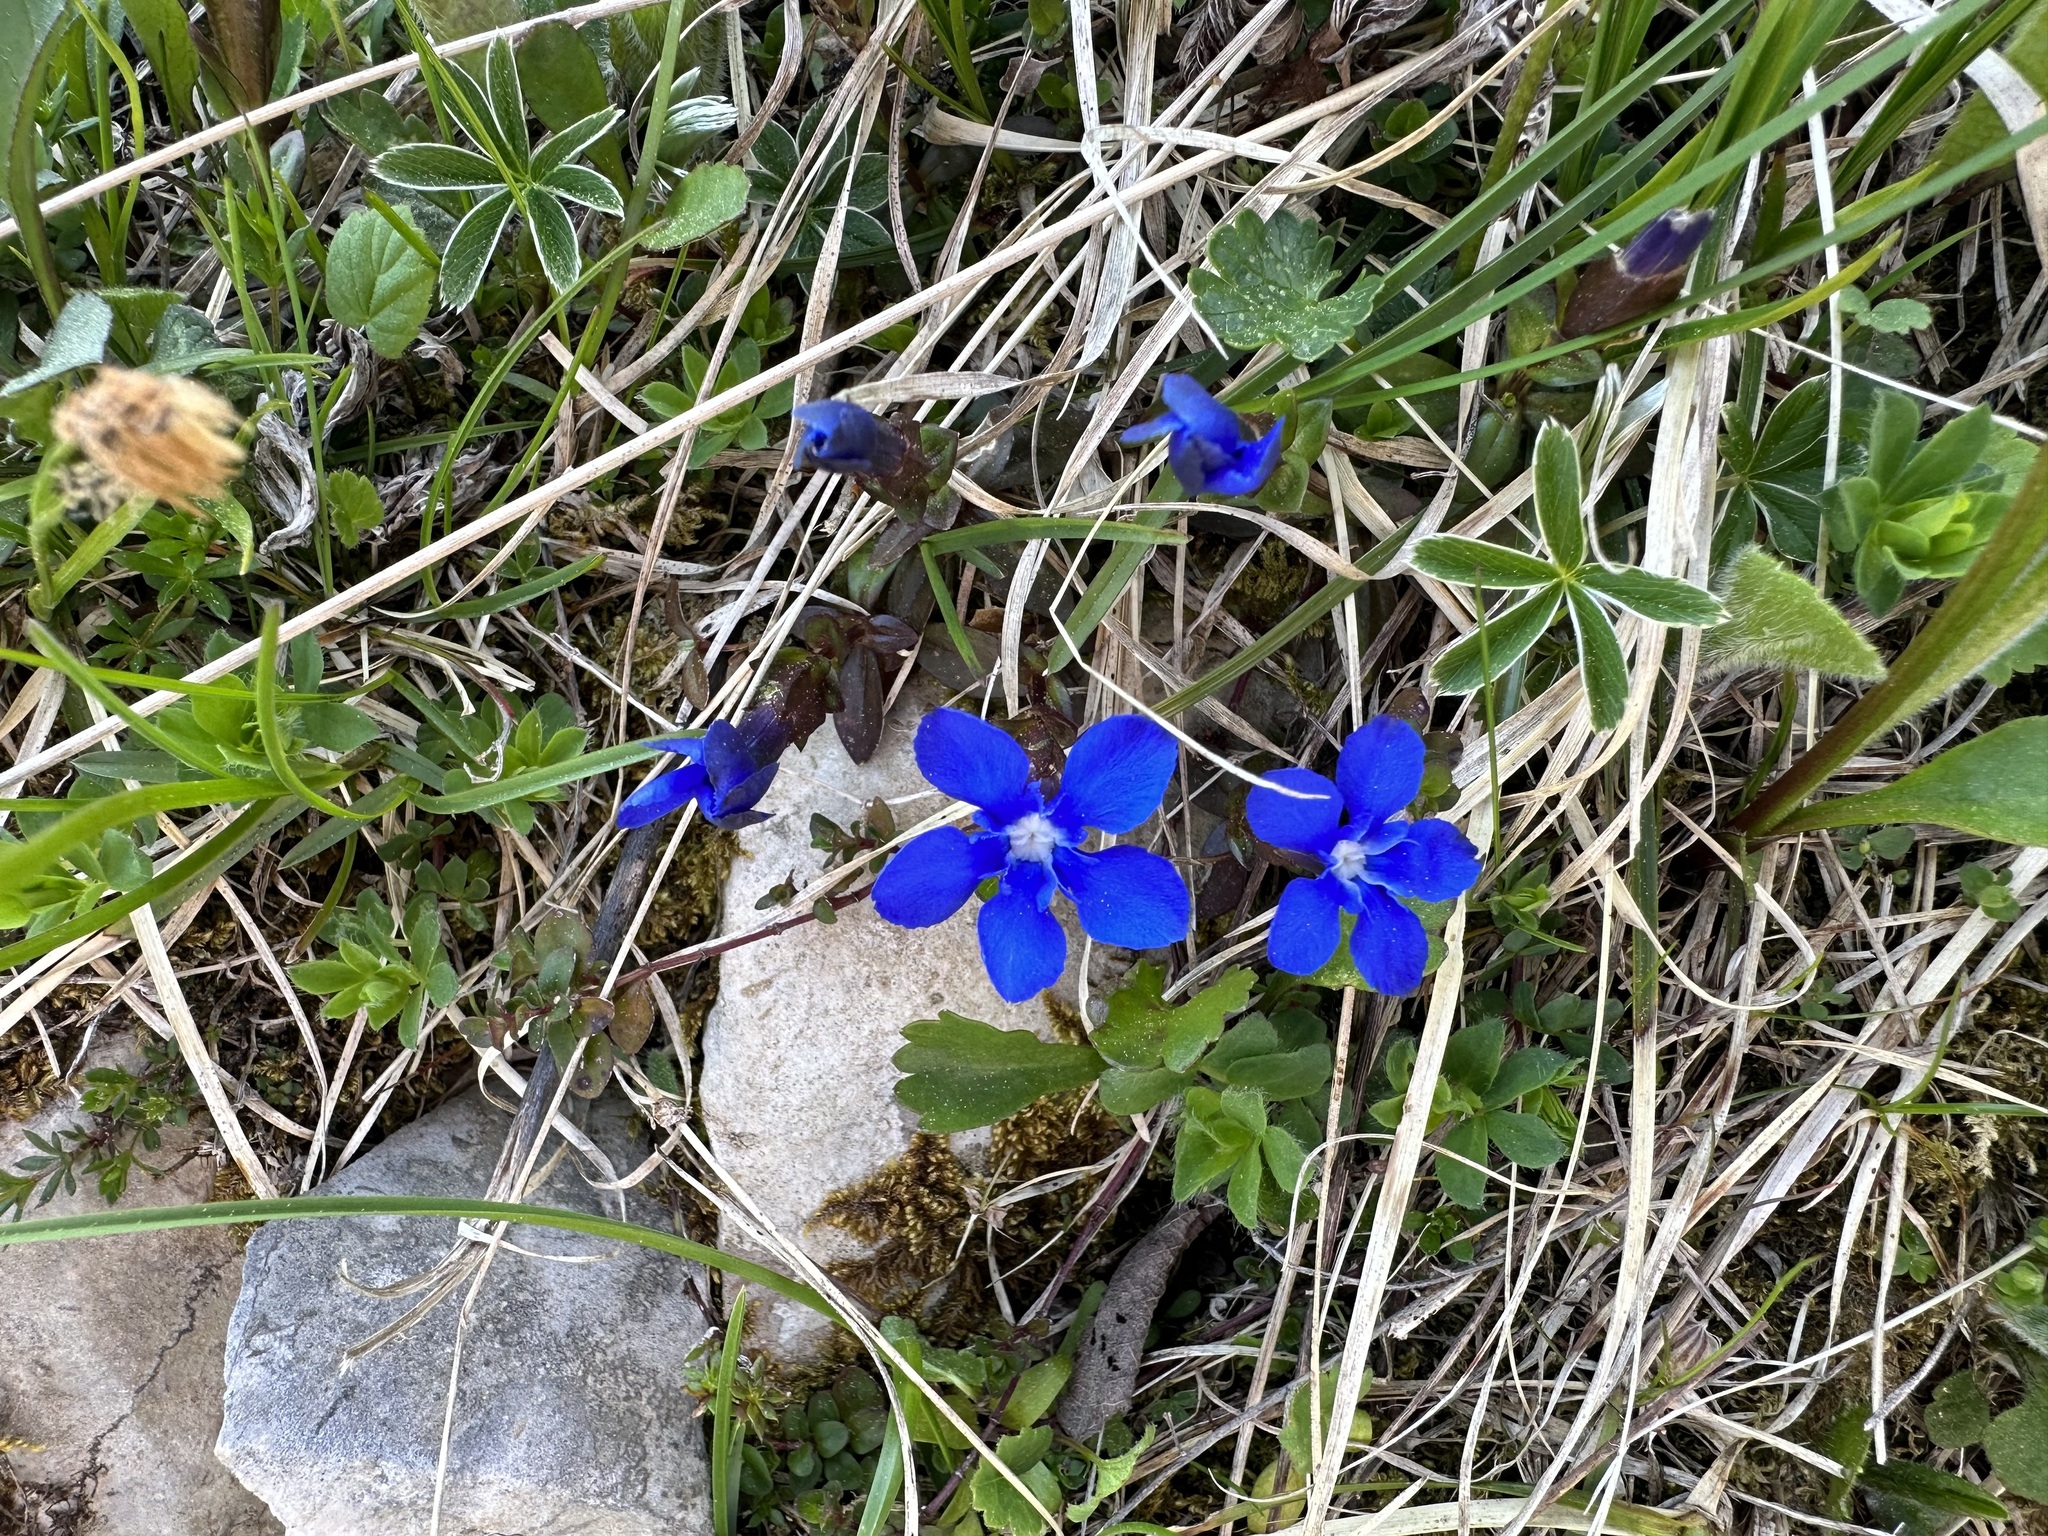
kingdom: Plantae
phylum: Tracheophyta
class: Magnoliopsida
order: Gentianales
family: Gentianaceae
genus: Gentiana
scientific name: Gentiana verna
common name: Spring gentian
